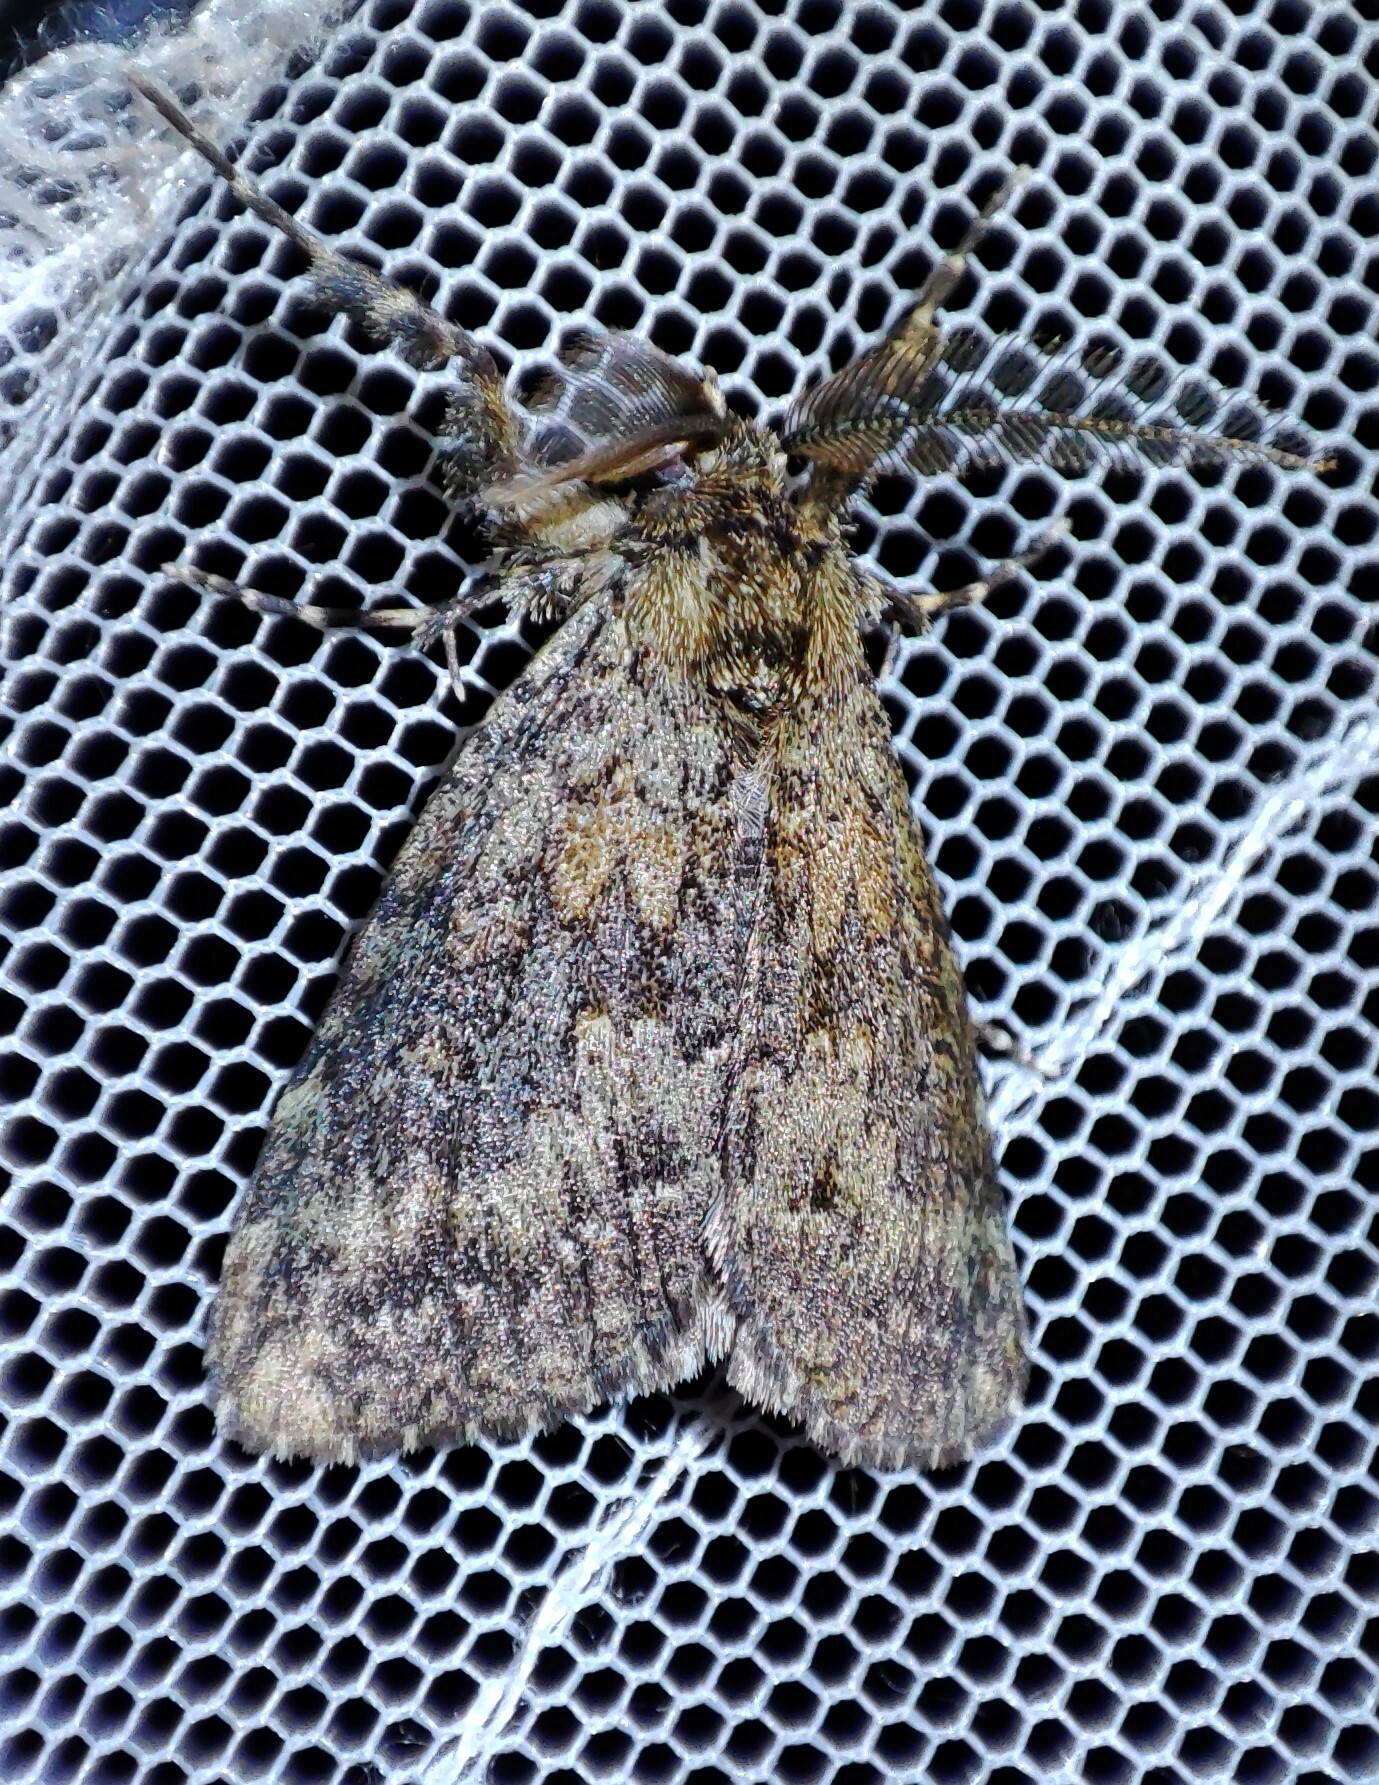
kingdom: Animalia
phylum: Arthropoda
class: Insecta
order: Lepidoptera
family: Erebidae
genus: Laelia
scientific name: Laelia fusca
